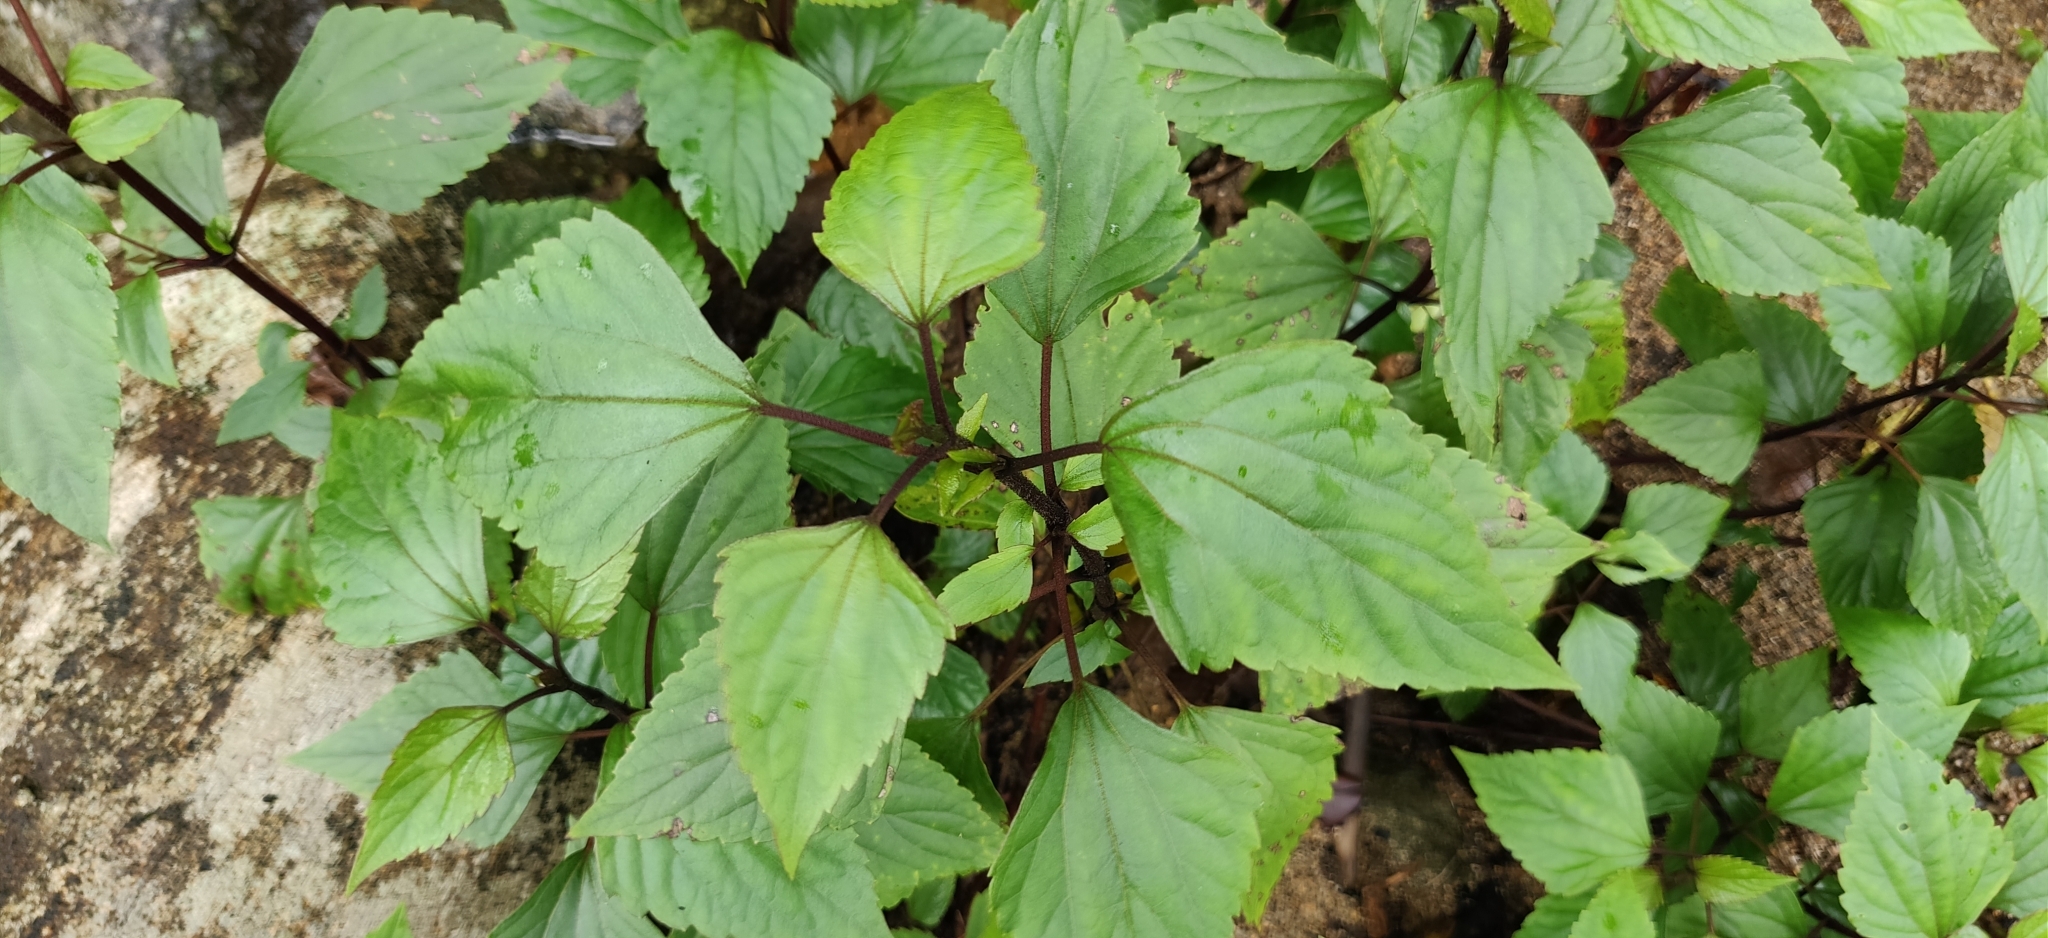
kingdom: Plantae
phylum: Tracheophyta
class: Magnoliopsida
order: Asterales
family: Asteraceae
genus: Ageratina
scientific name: Ageratina adenophora
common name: Sticky snakeroot
